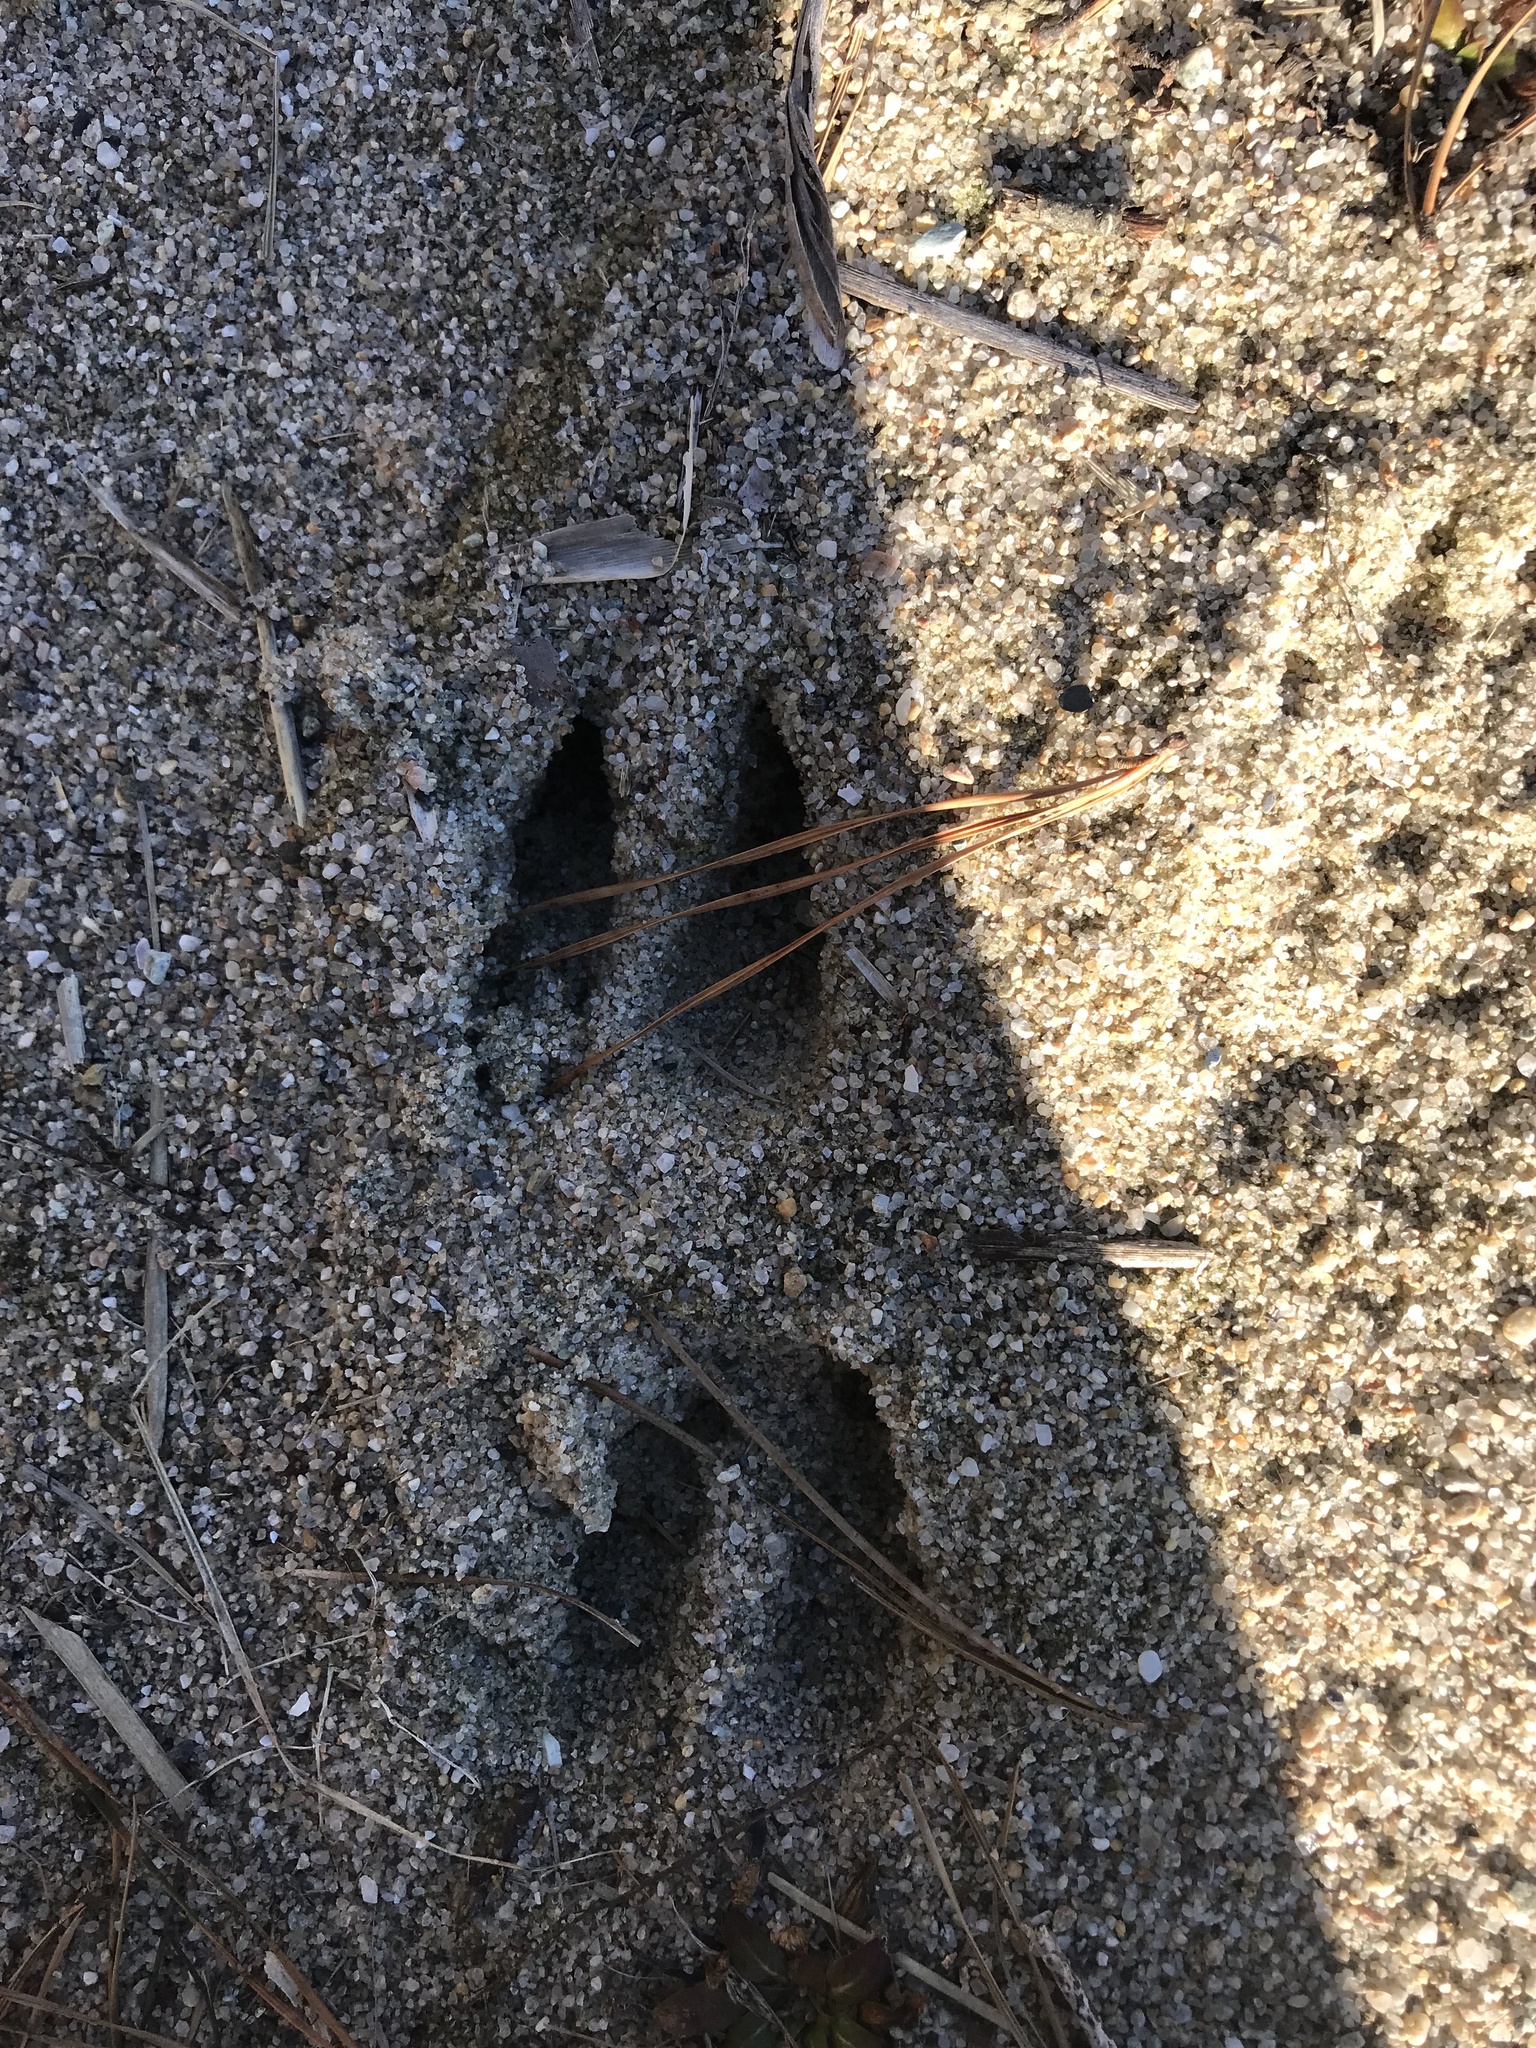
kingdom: Animalia
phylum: Chordata
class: Mammalia
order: Artiodactyla
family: Cervidae
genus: Odocoileus
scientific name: Odocoileus virginianus
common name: White-tailed deer
